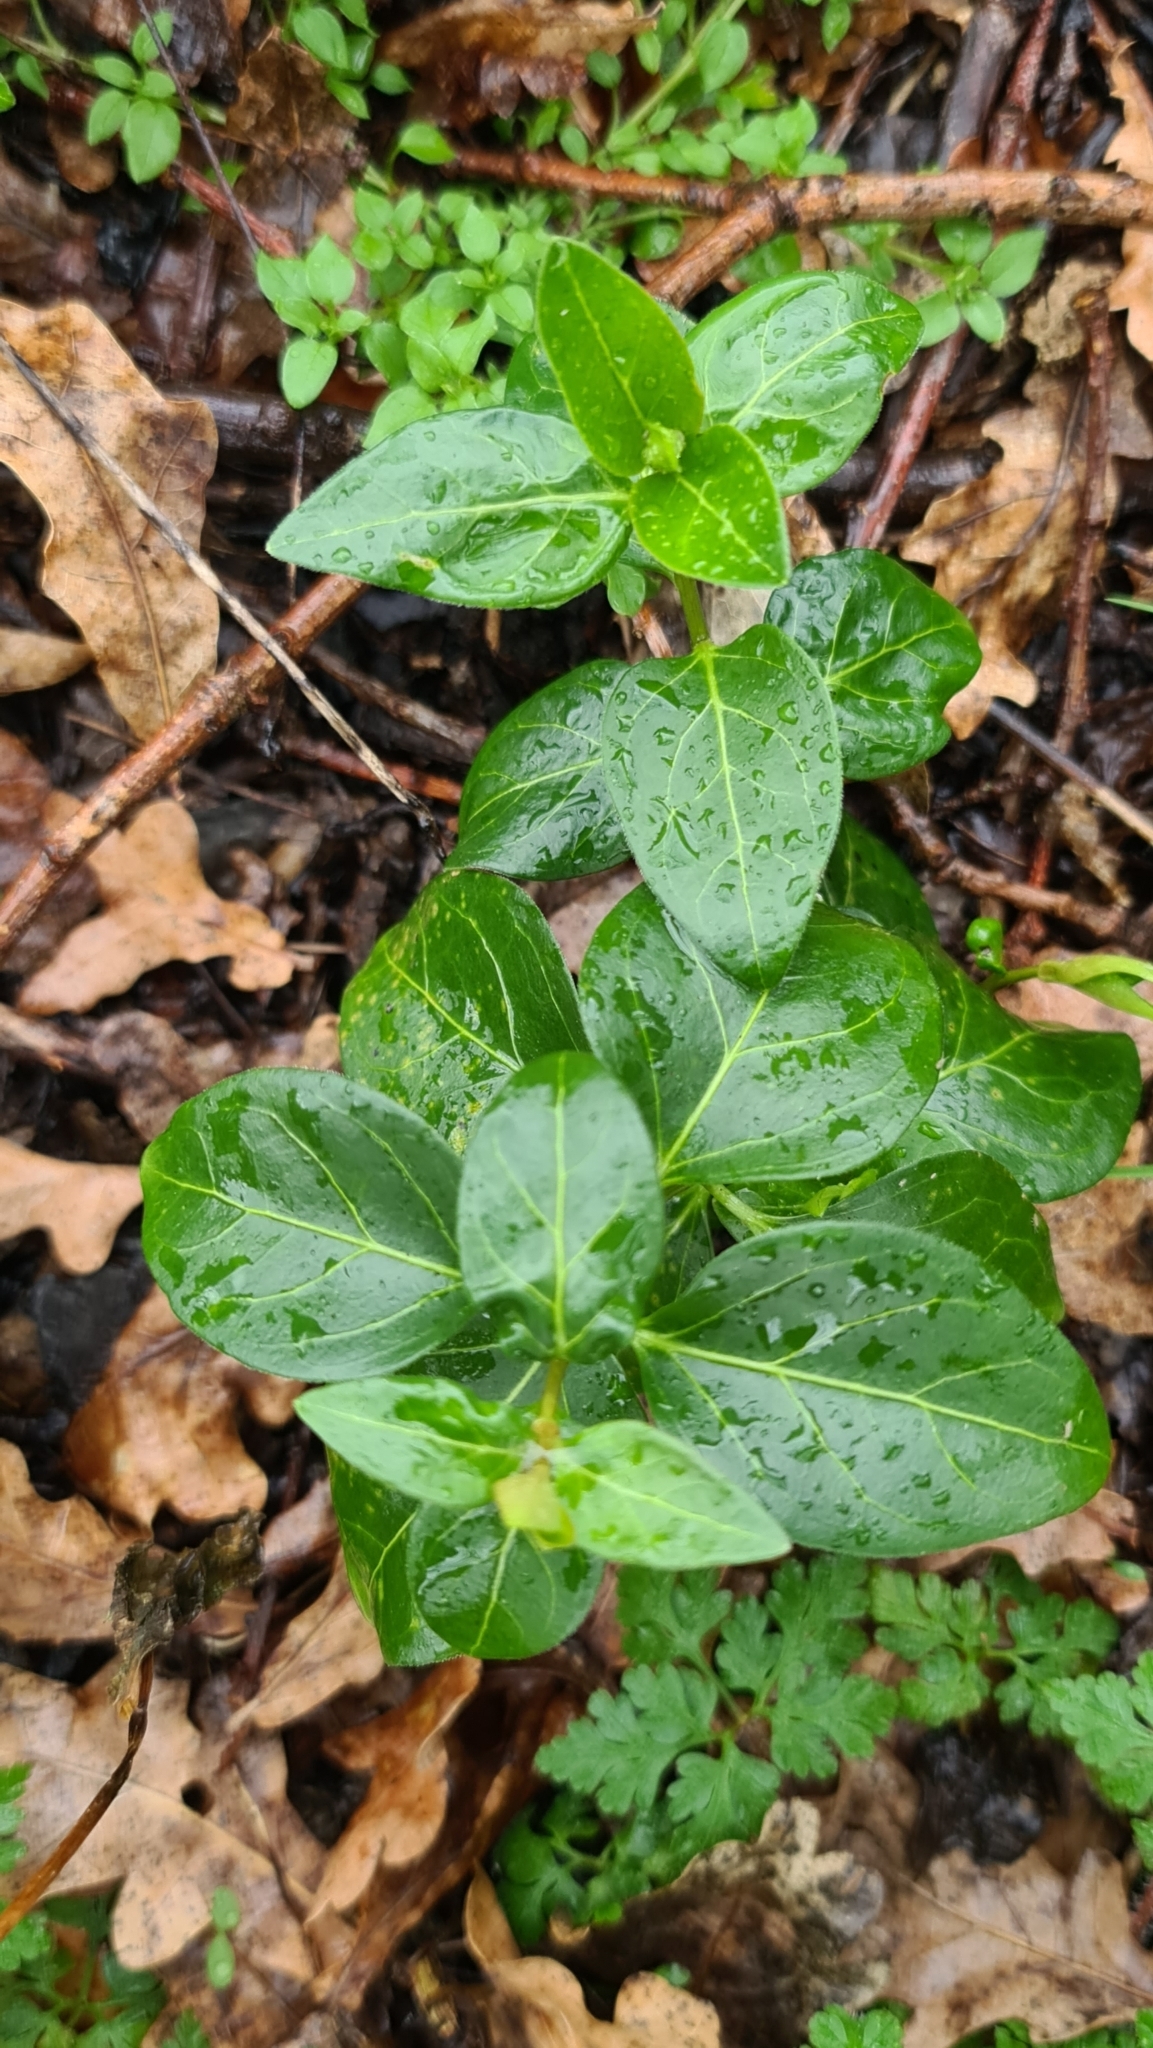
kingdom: Plantae
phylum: Tracheophyta
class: Magnoliopsida
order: Gentianales
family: Apocynaceae
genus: Vinca
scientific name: Vinca major
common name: Greater periwinkle
